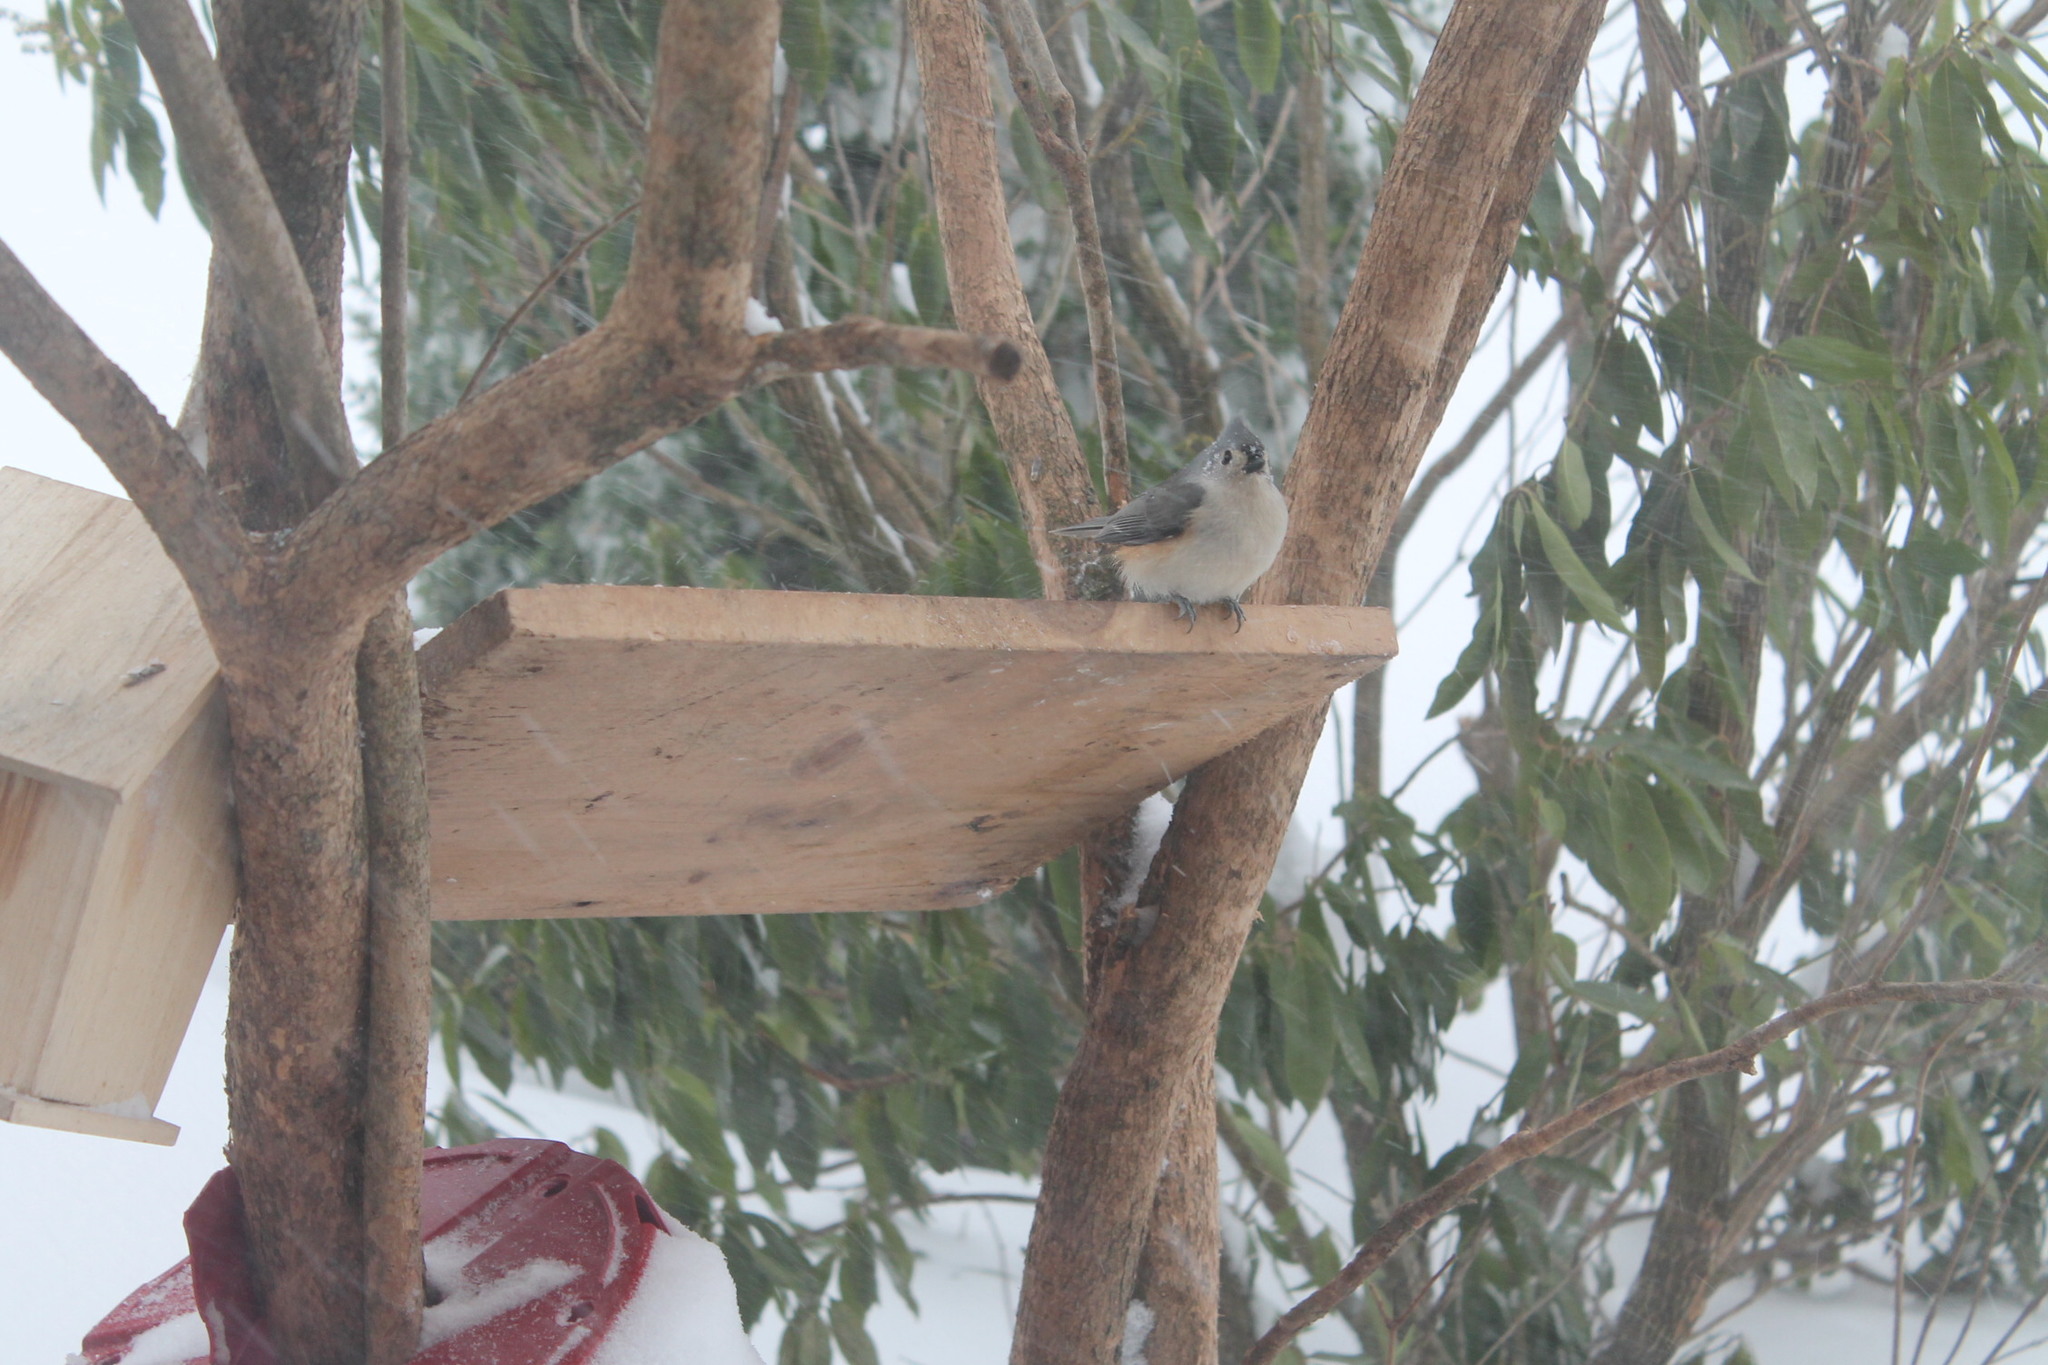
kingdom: Animalia
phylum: Chordata
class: Aves
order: Passeriformes
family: Paridae
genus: Baeolophus
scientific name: Baeolophus bicolor
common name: Tufted titmouse
